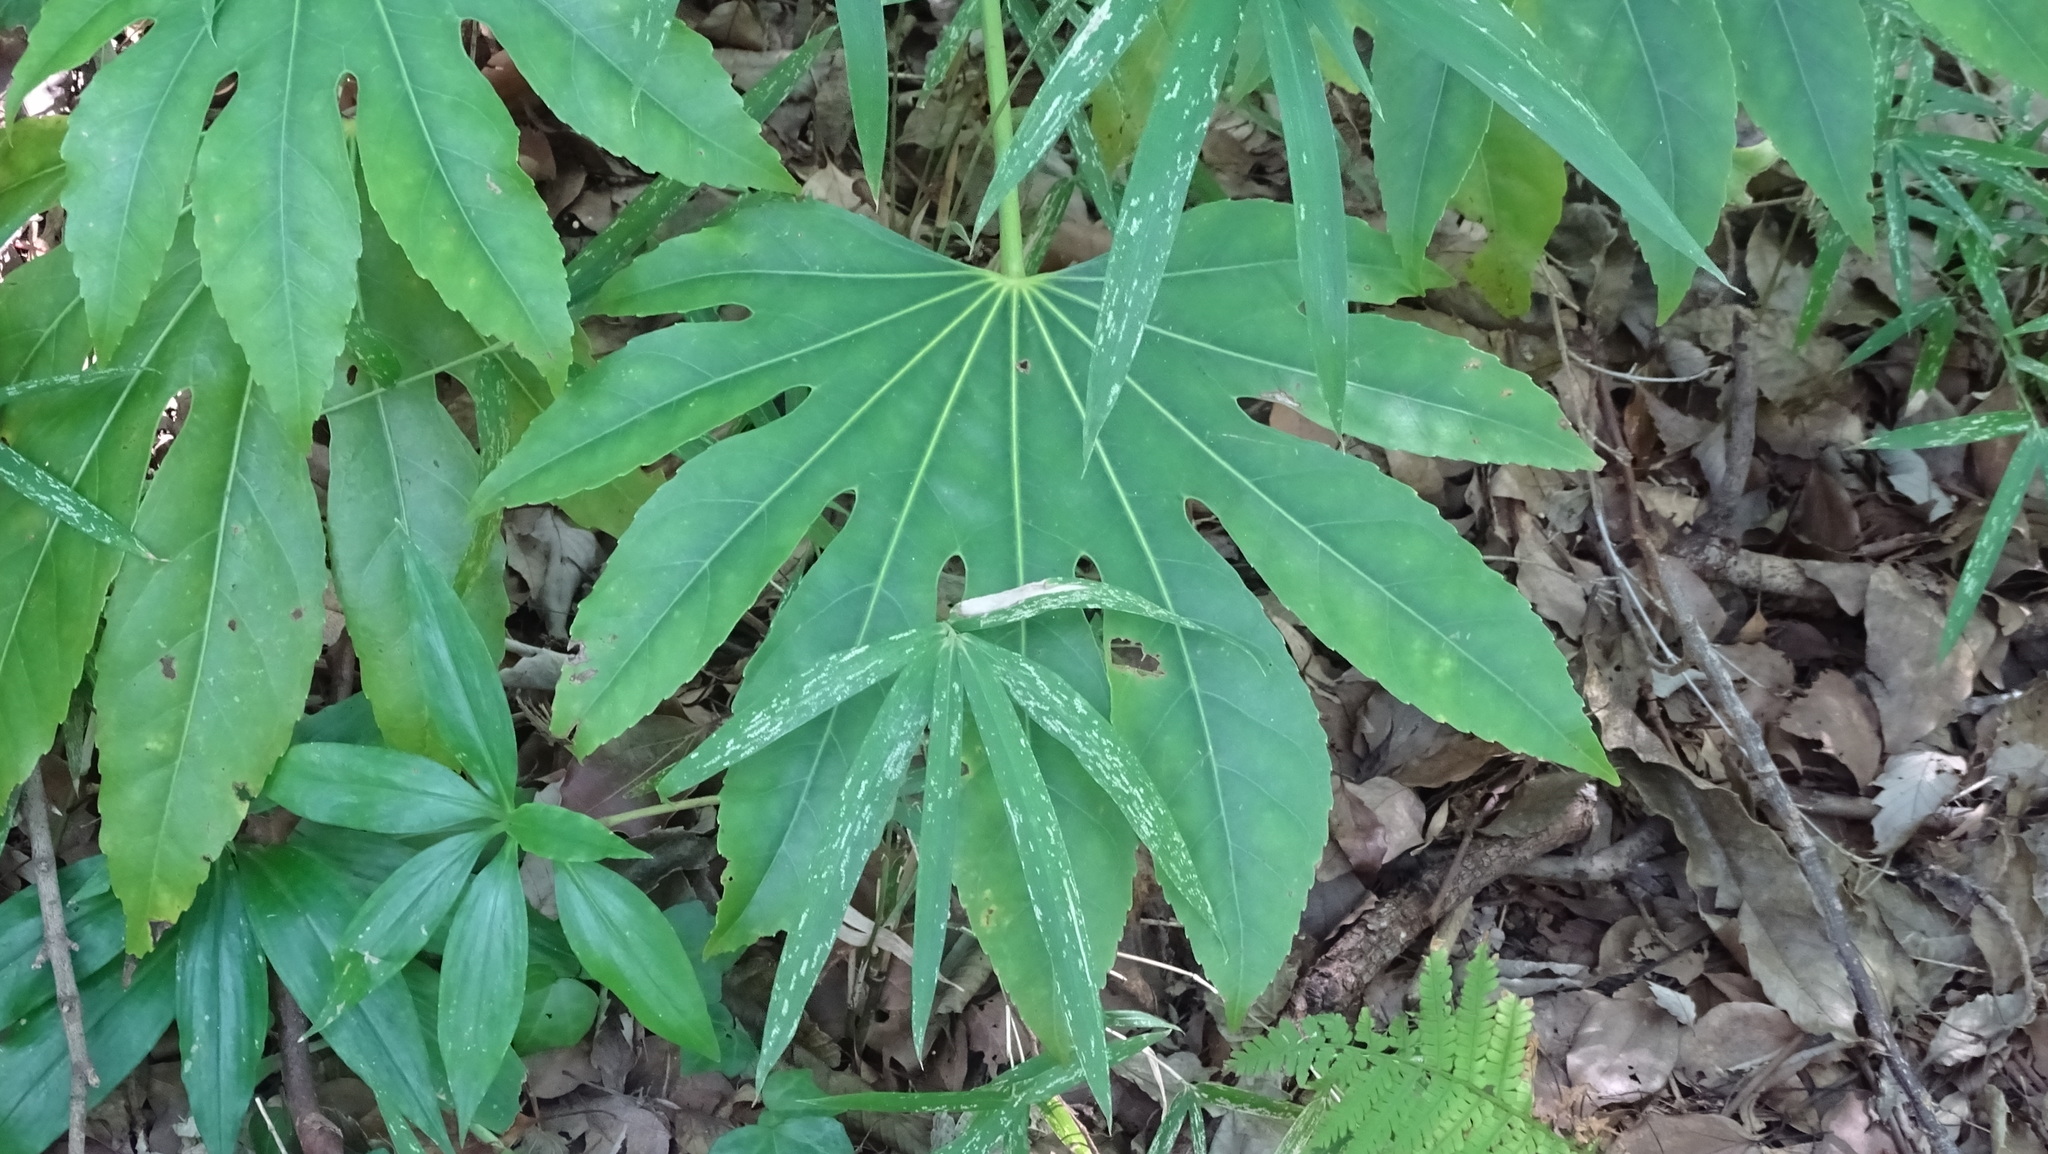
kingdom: Plantae
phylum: Tracheophyta
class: Magnoliopsida
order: Apiales
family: Araliaceae
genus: Fatsia
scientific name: Fatsia japonica
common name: Fatsia
